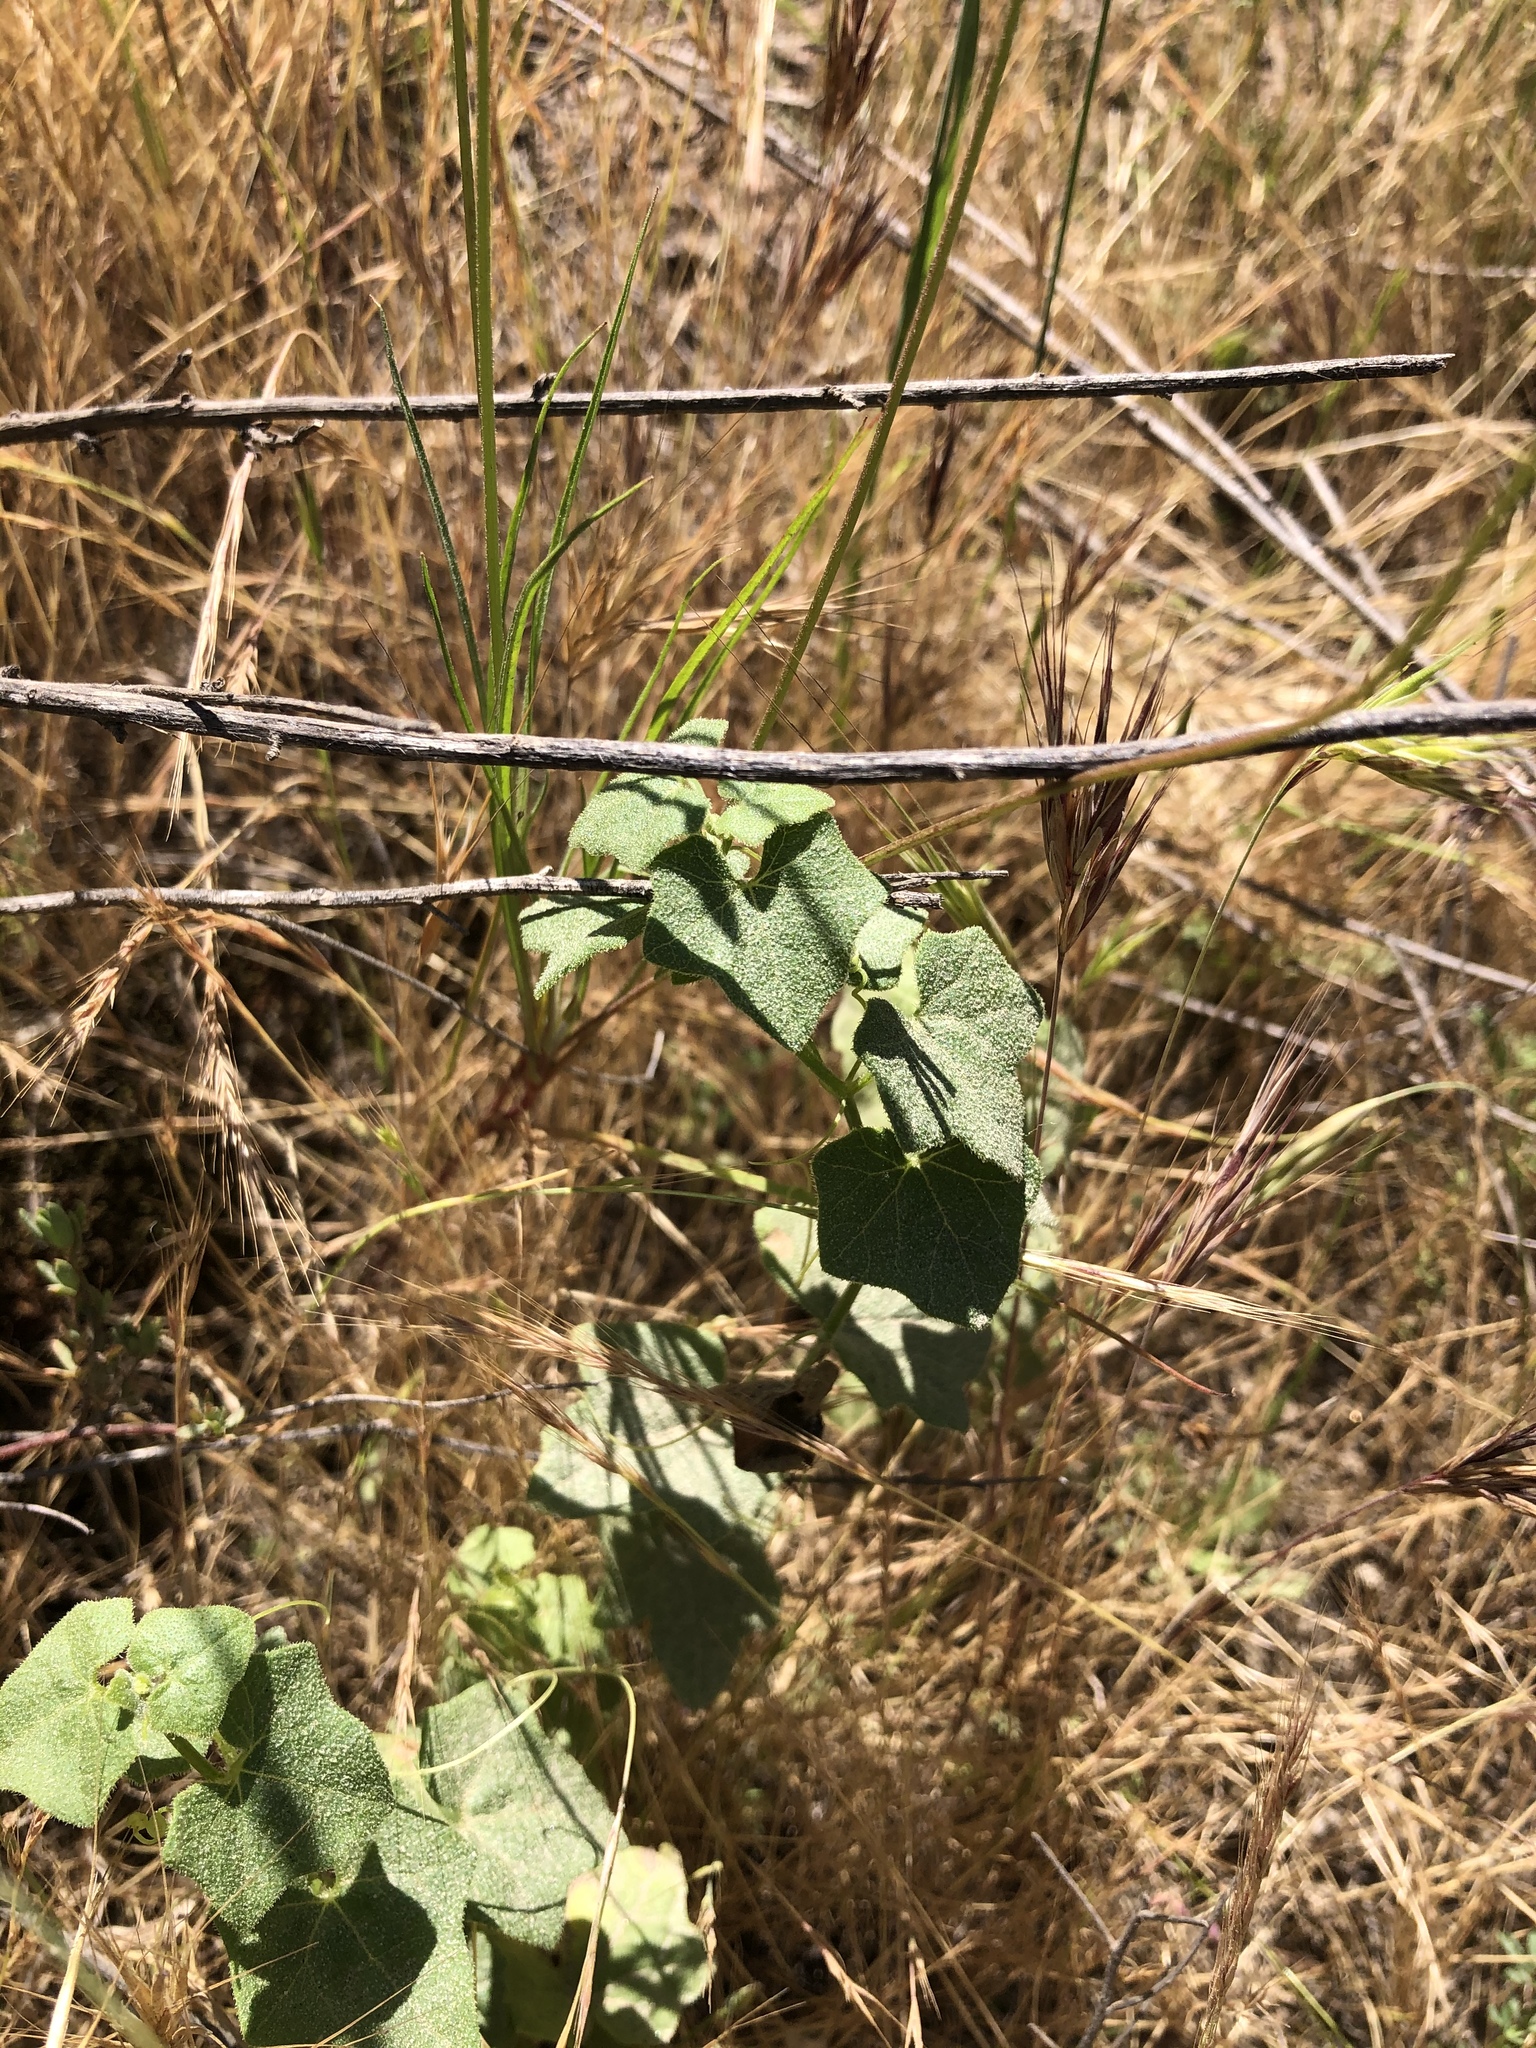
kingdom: Plantae
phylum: Tracheophyta
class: Magnoliopsida
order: Cucurbitales
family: Cucurbitaceae
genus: Marah
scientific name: Marah macrocarpa
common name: Cucamonga manroot
